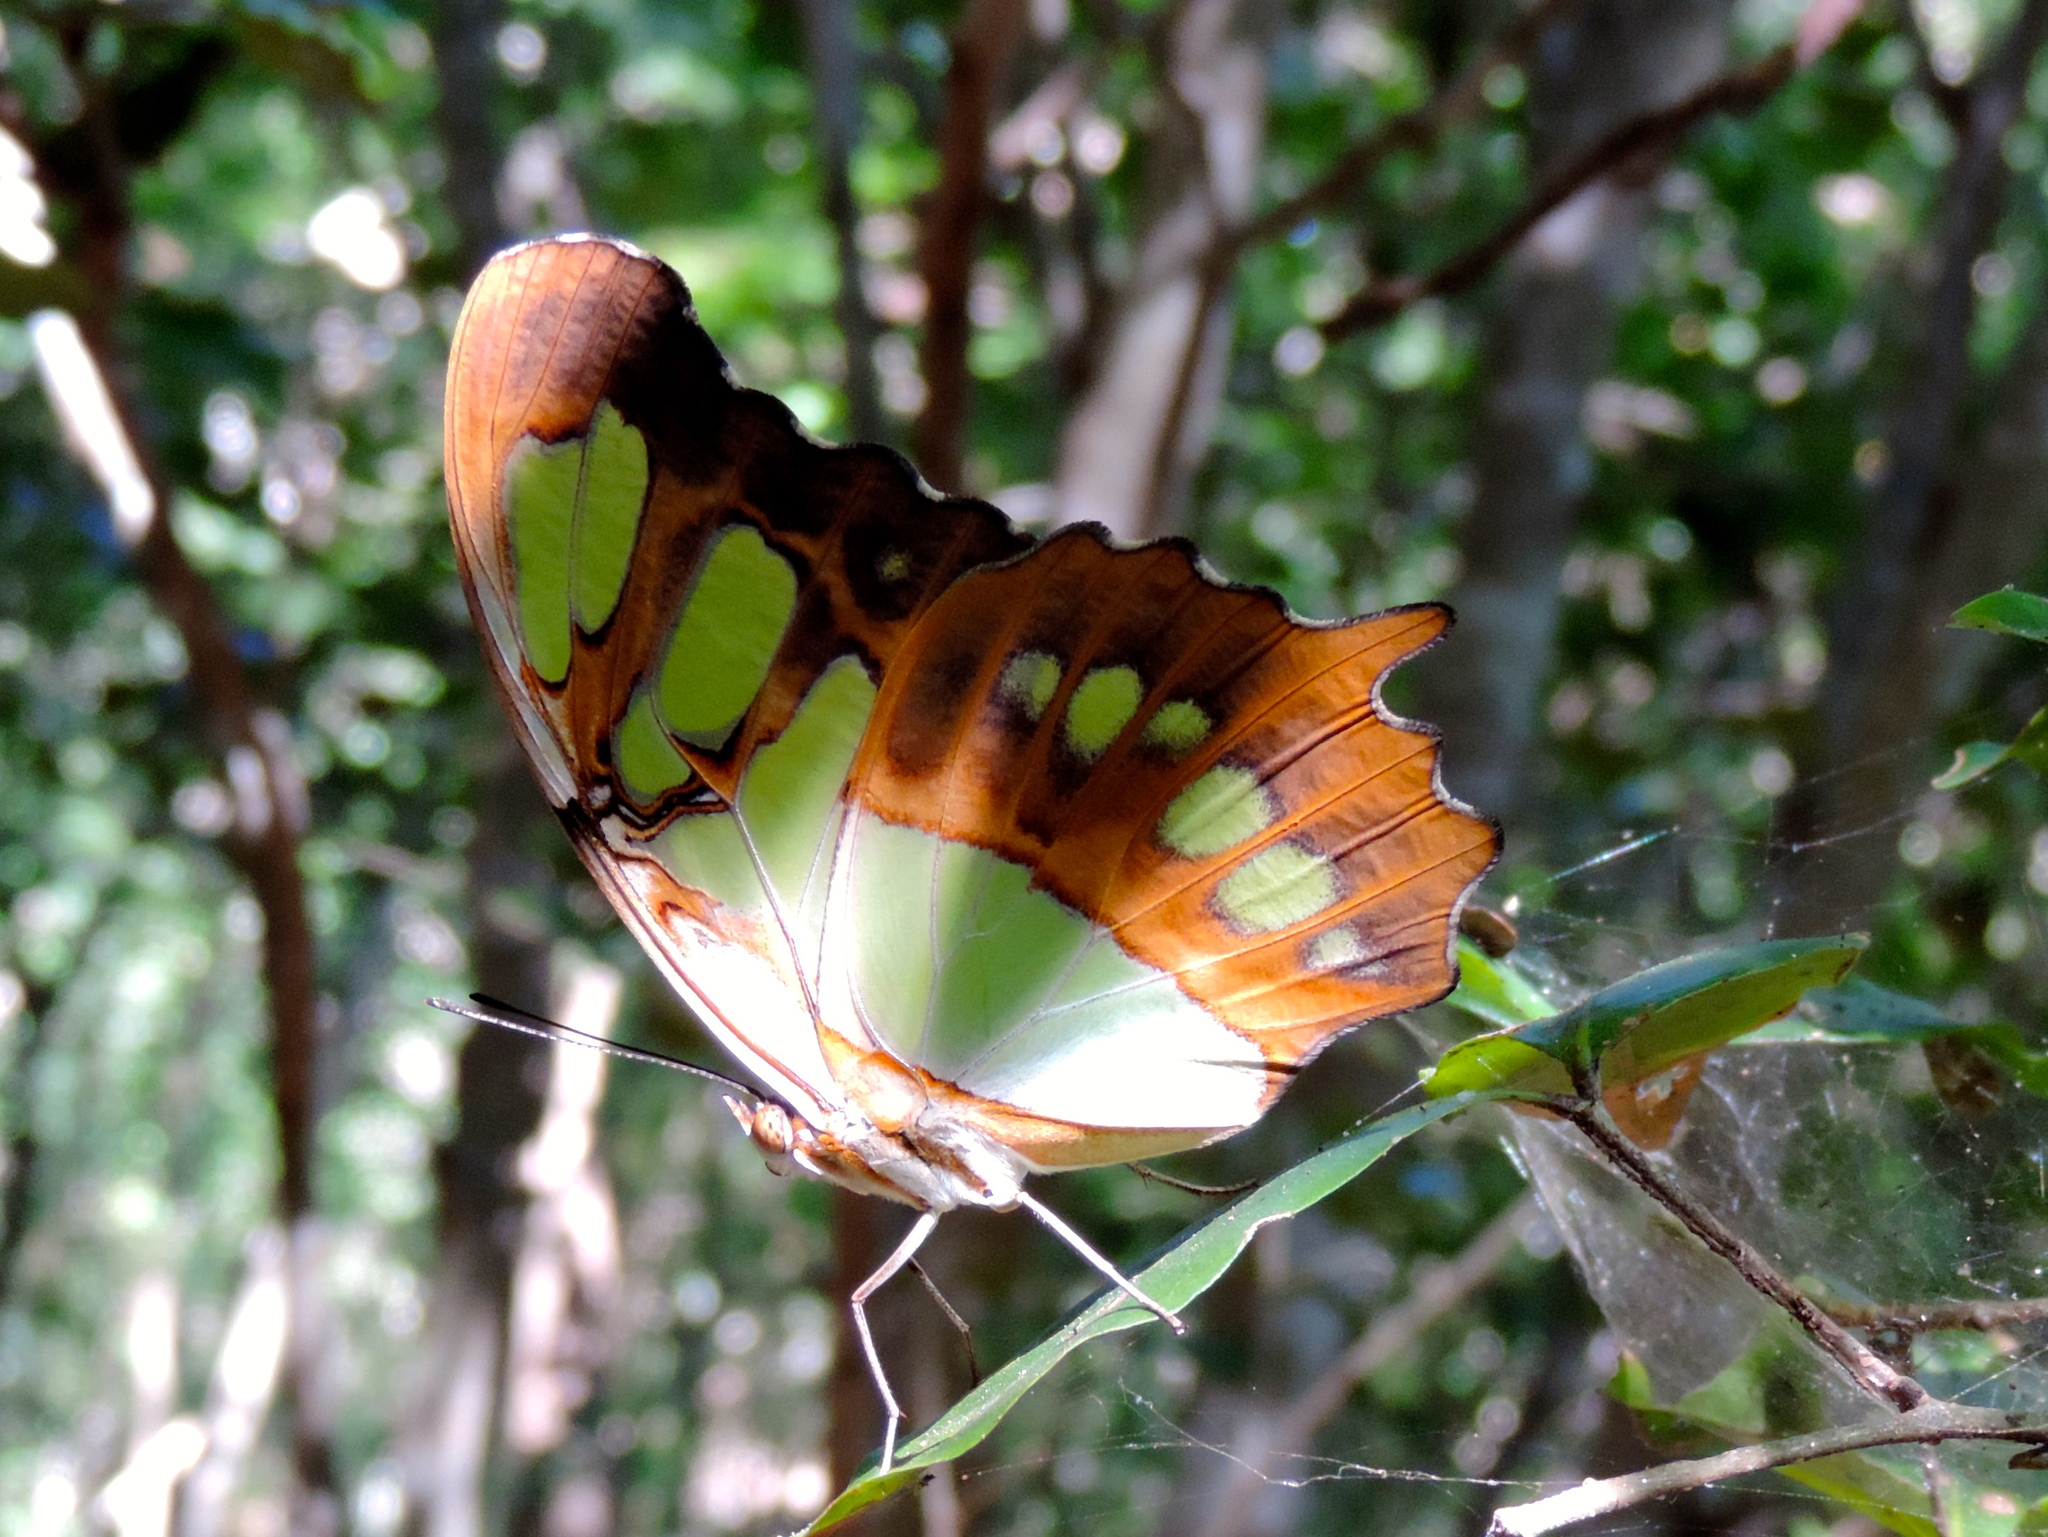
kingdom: Animalia
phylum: Arthropoda
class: Insecta
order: Lepidoptera
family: Nymphalidae
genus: Siproeta
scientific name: Siproeta stelenes
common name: Malachite
